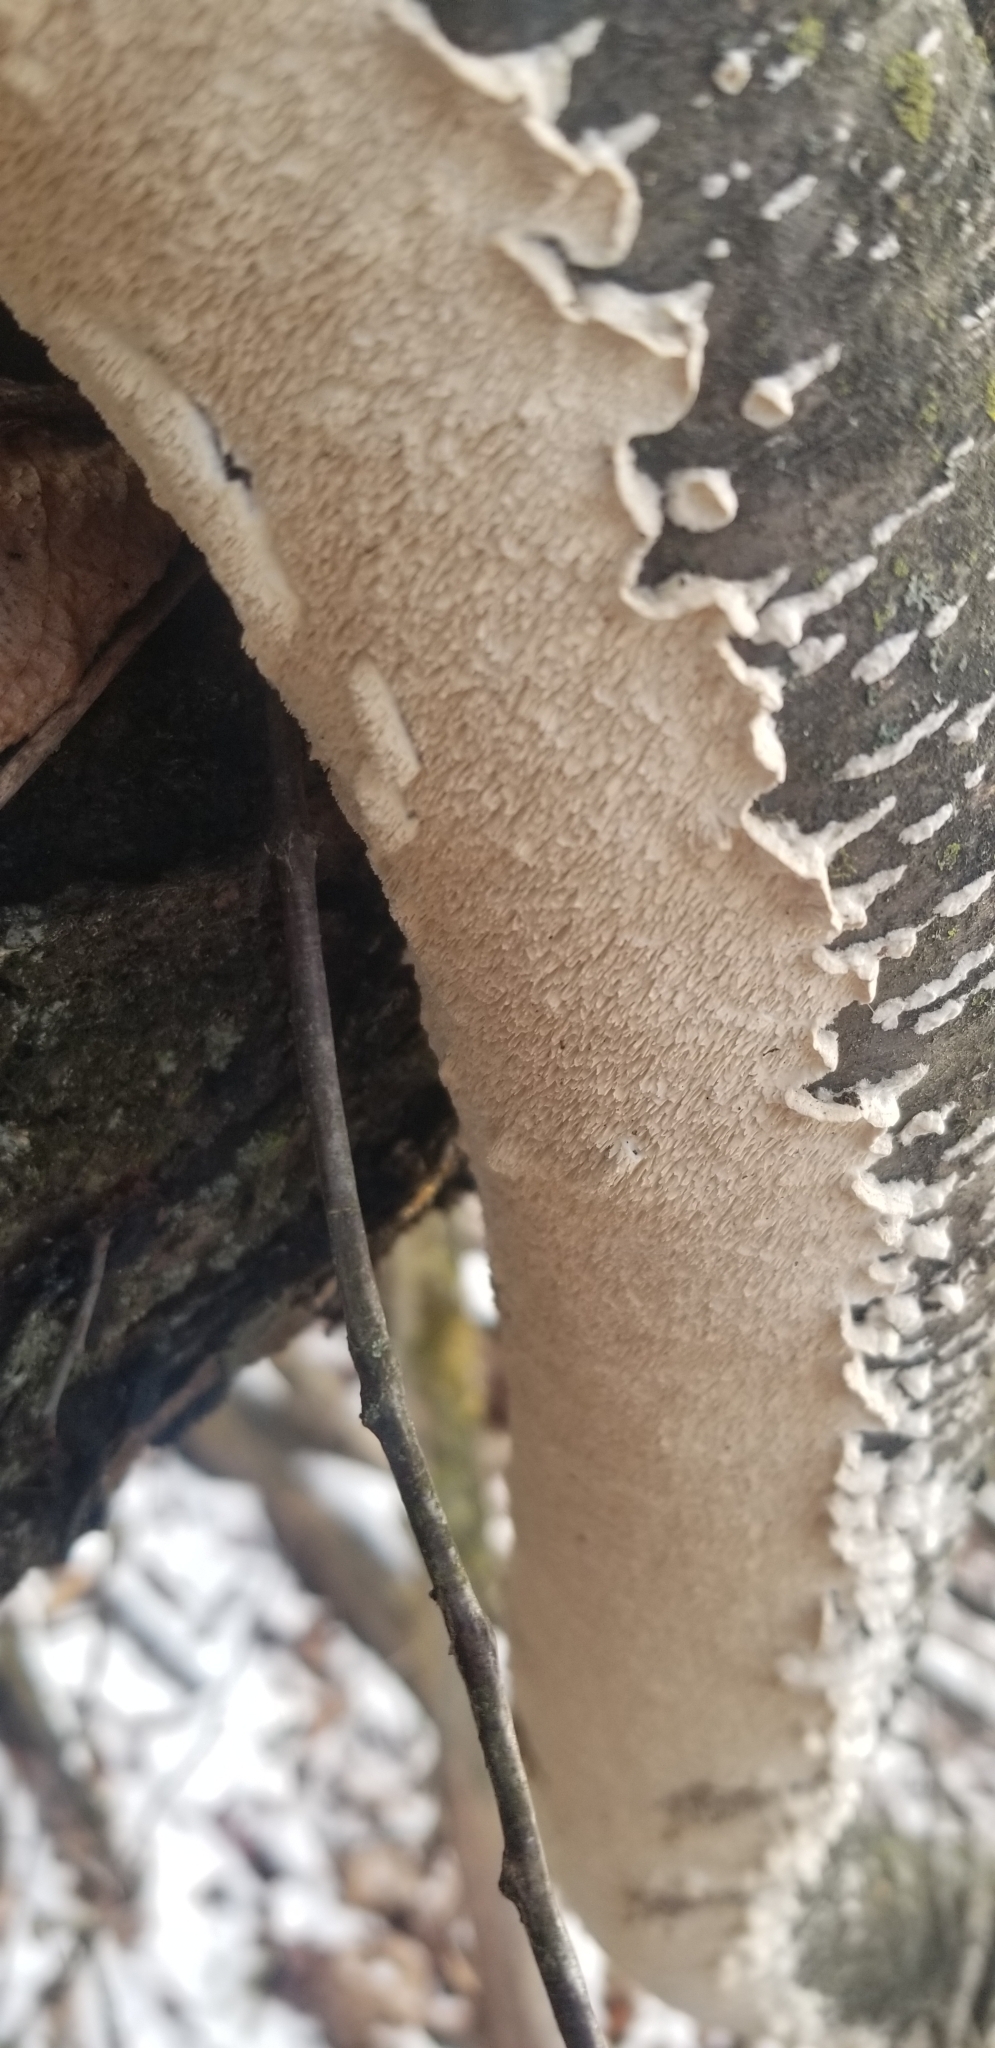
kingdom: Fungi
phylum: Basidiomycota
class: Agaricomycetes
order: Polyporales
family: Irpicaceae
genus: Irpex
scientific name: Irpex lacteus
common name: Milk-white toothed polypore
